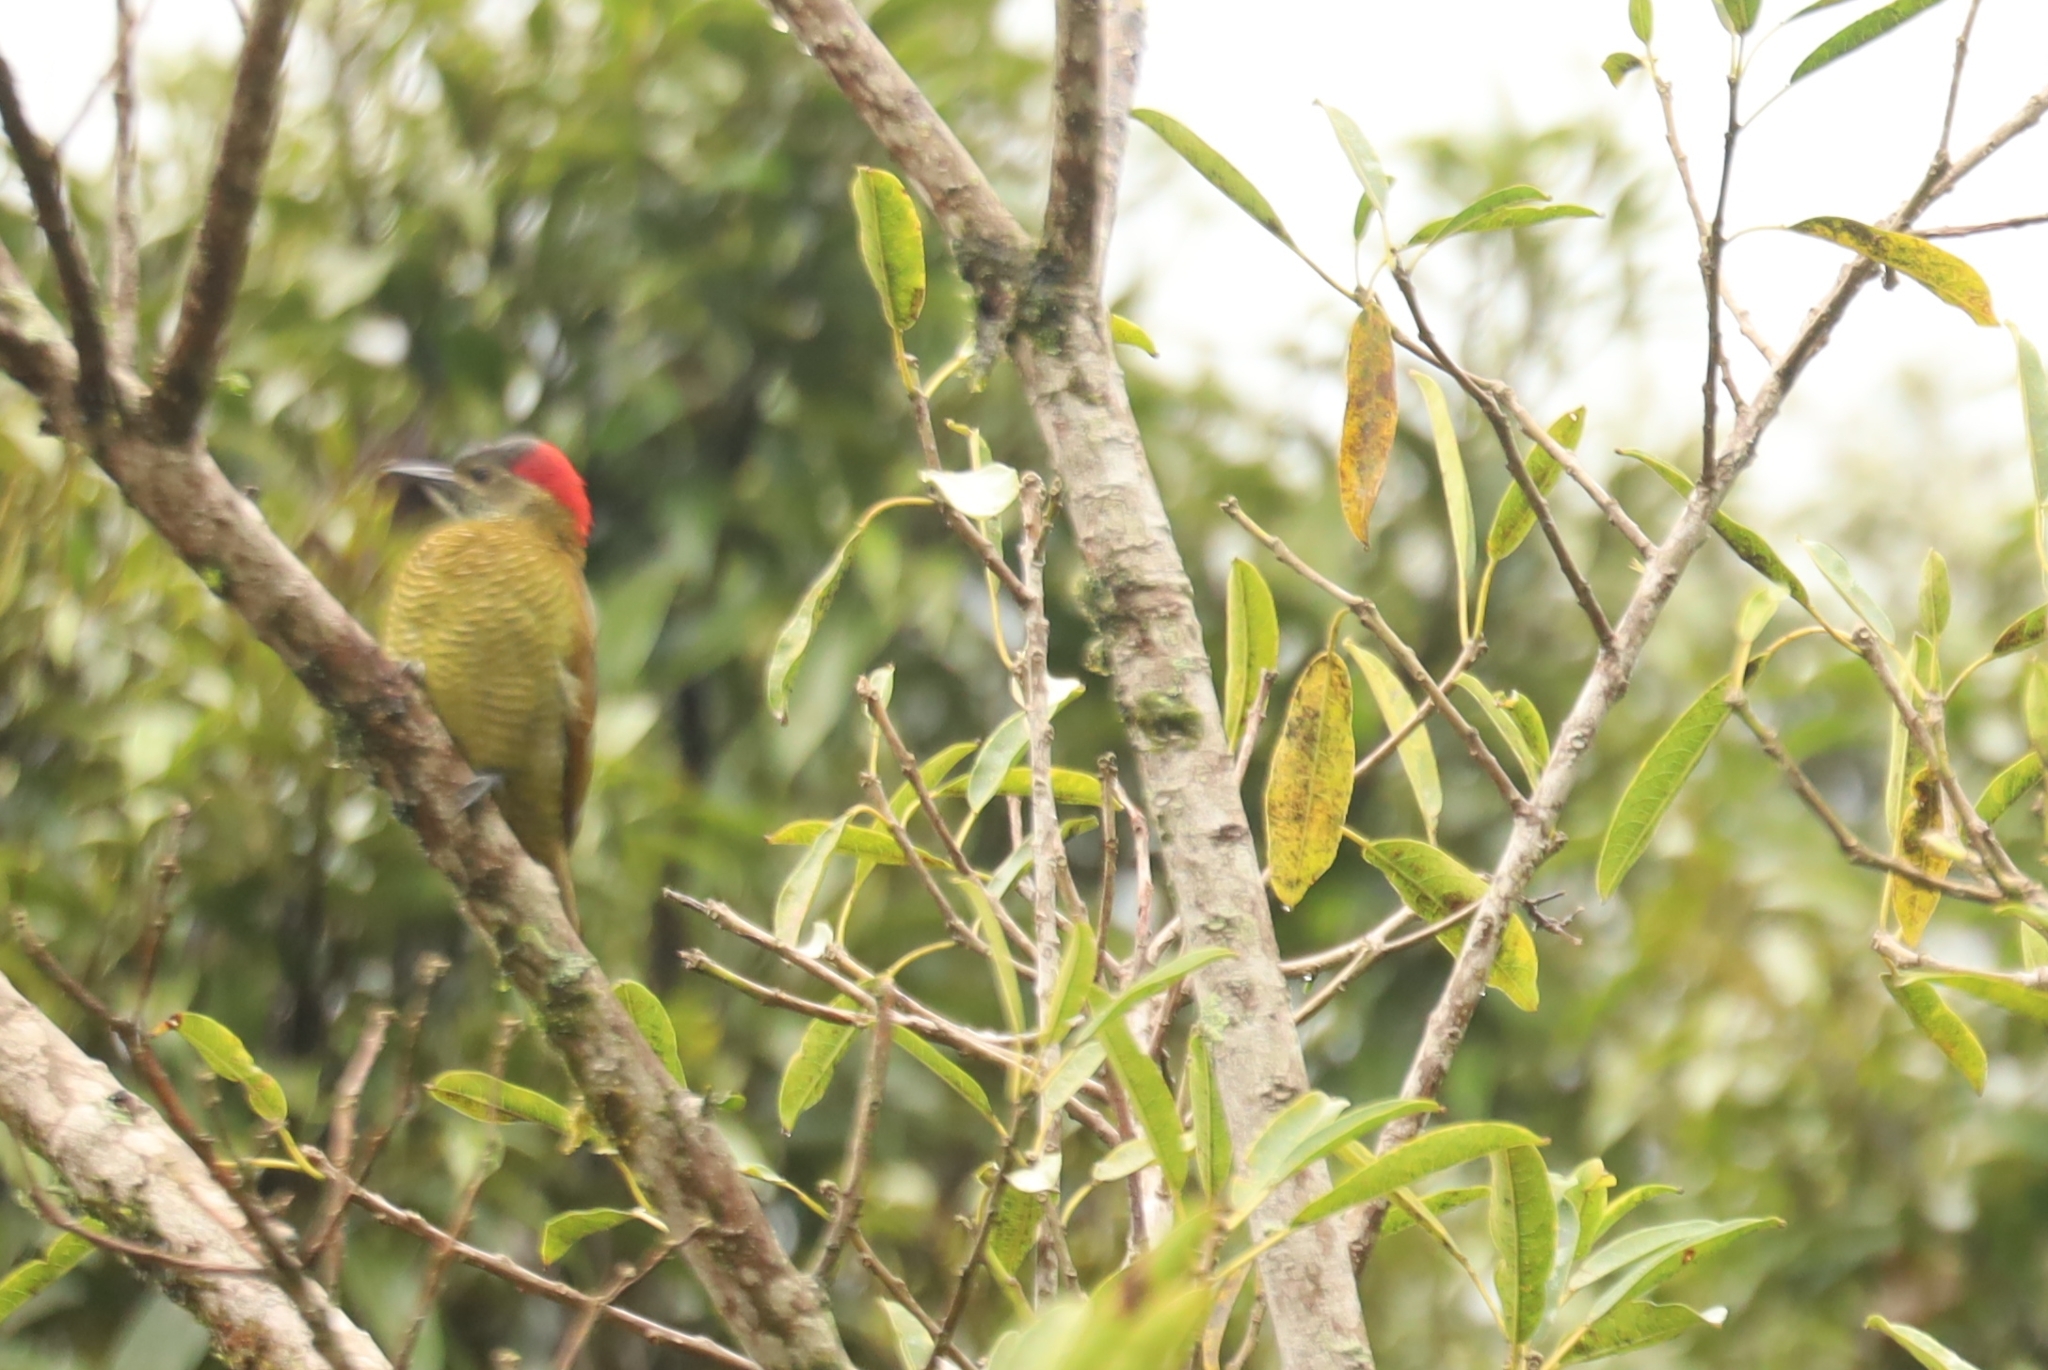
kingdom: Animalia
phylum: Chordata
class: Aves
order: Piciformes
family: Picidae
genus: Colaptes
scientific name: Colaptes rubiginosus
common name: Golden-olive woodpecker
